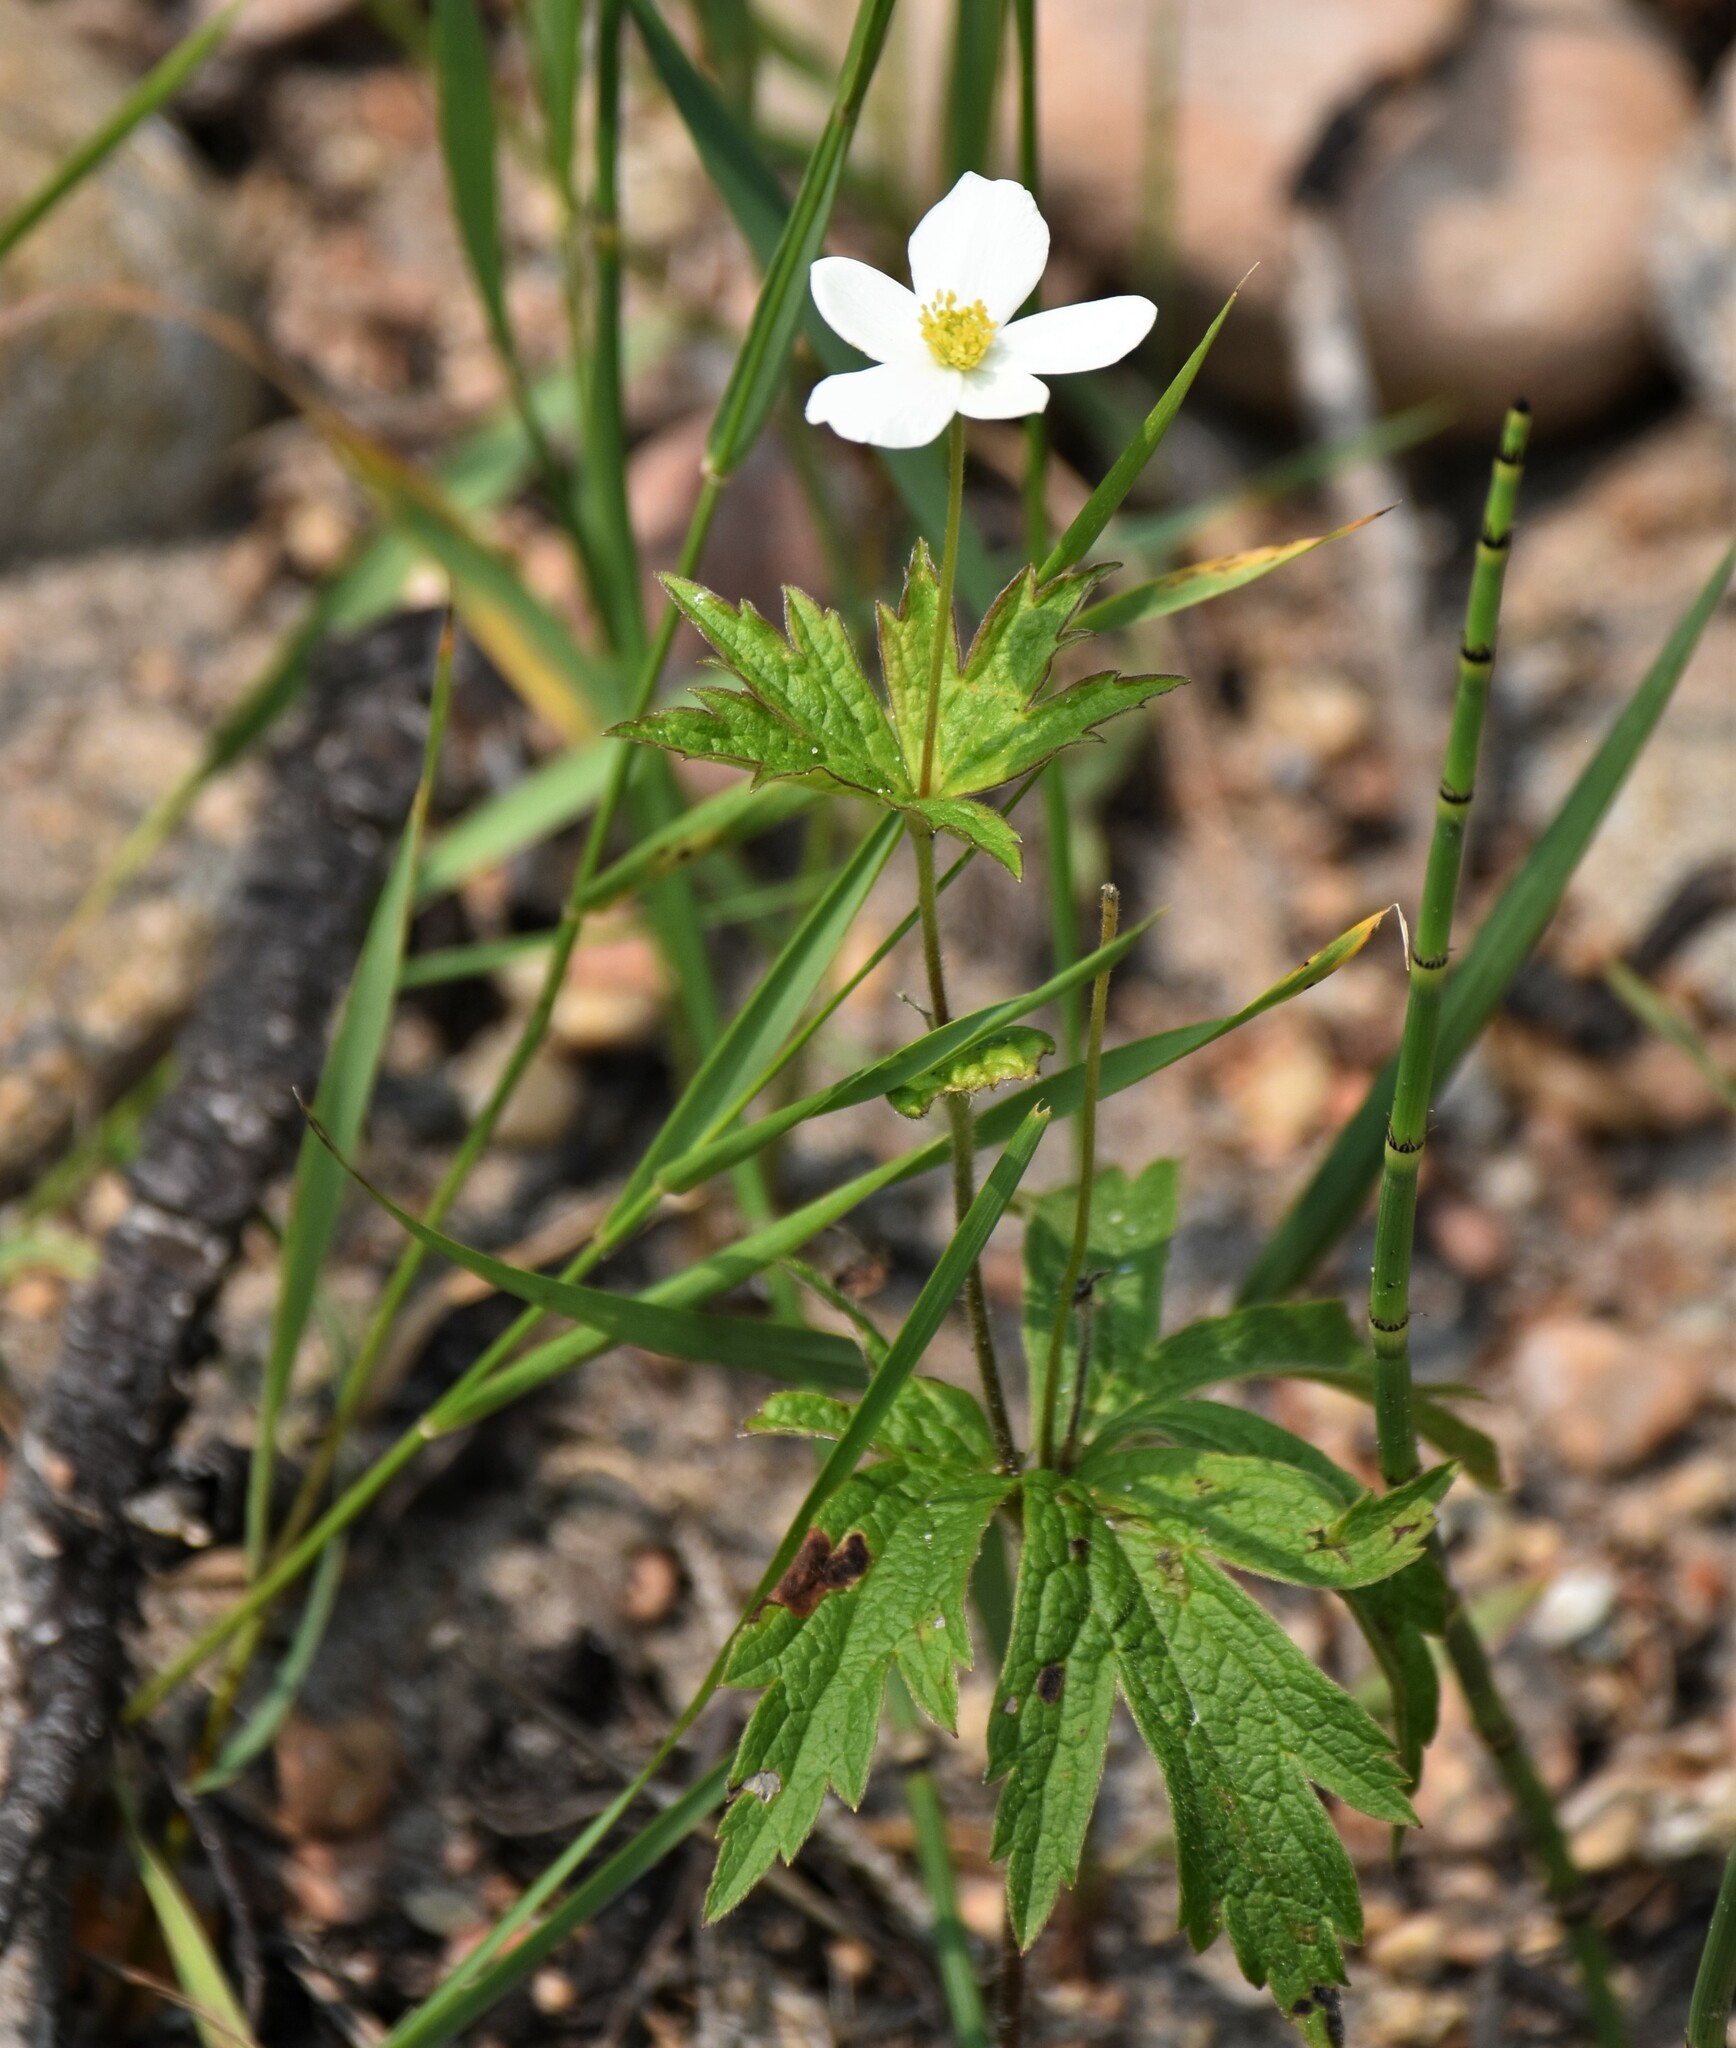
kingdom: Plantae
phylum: Tracheophyta
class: Magnoliopsida
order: Ranunculales
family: Ranunculaceae
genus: Anemonastrum
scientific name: Anemonastrum canadense
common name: Canada anemone
